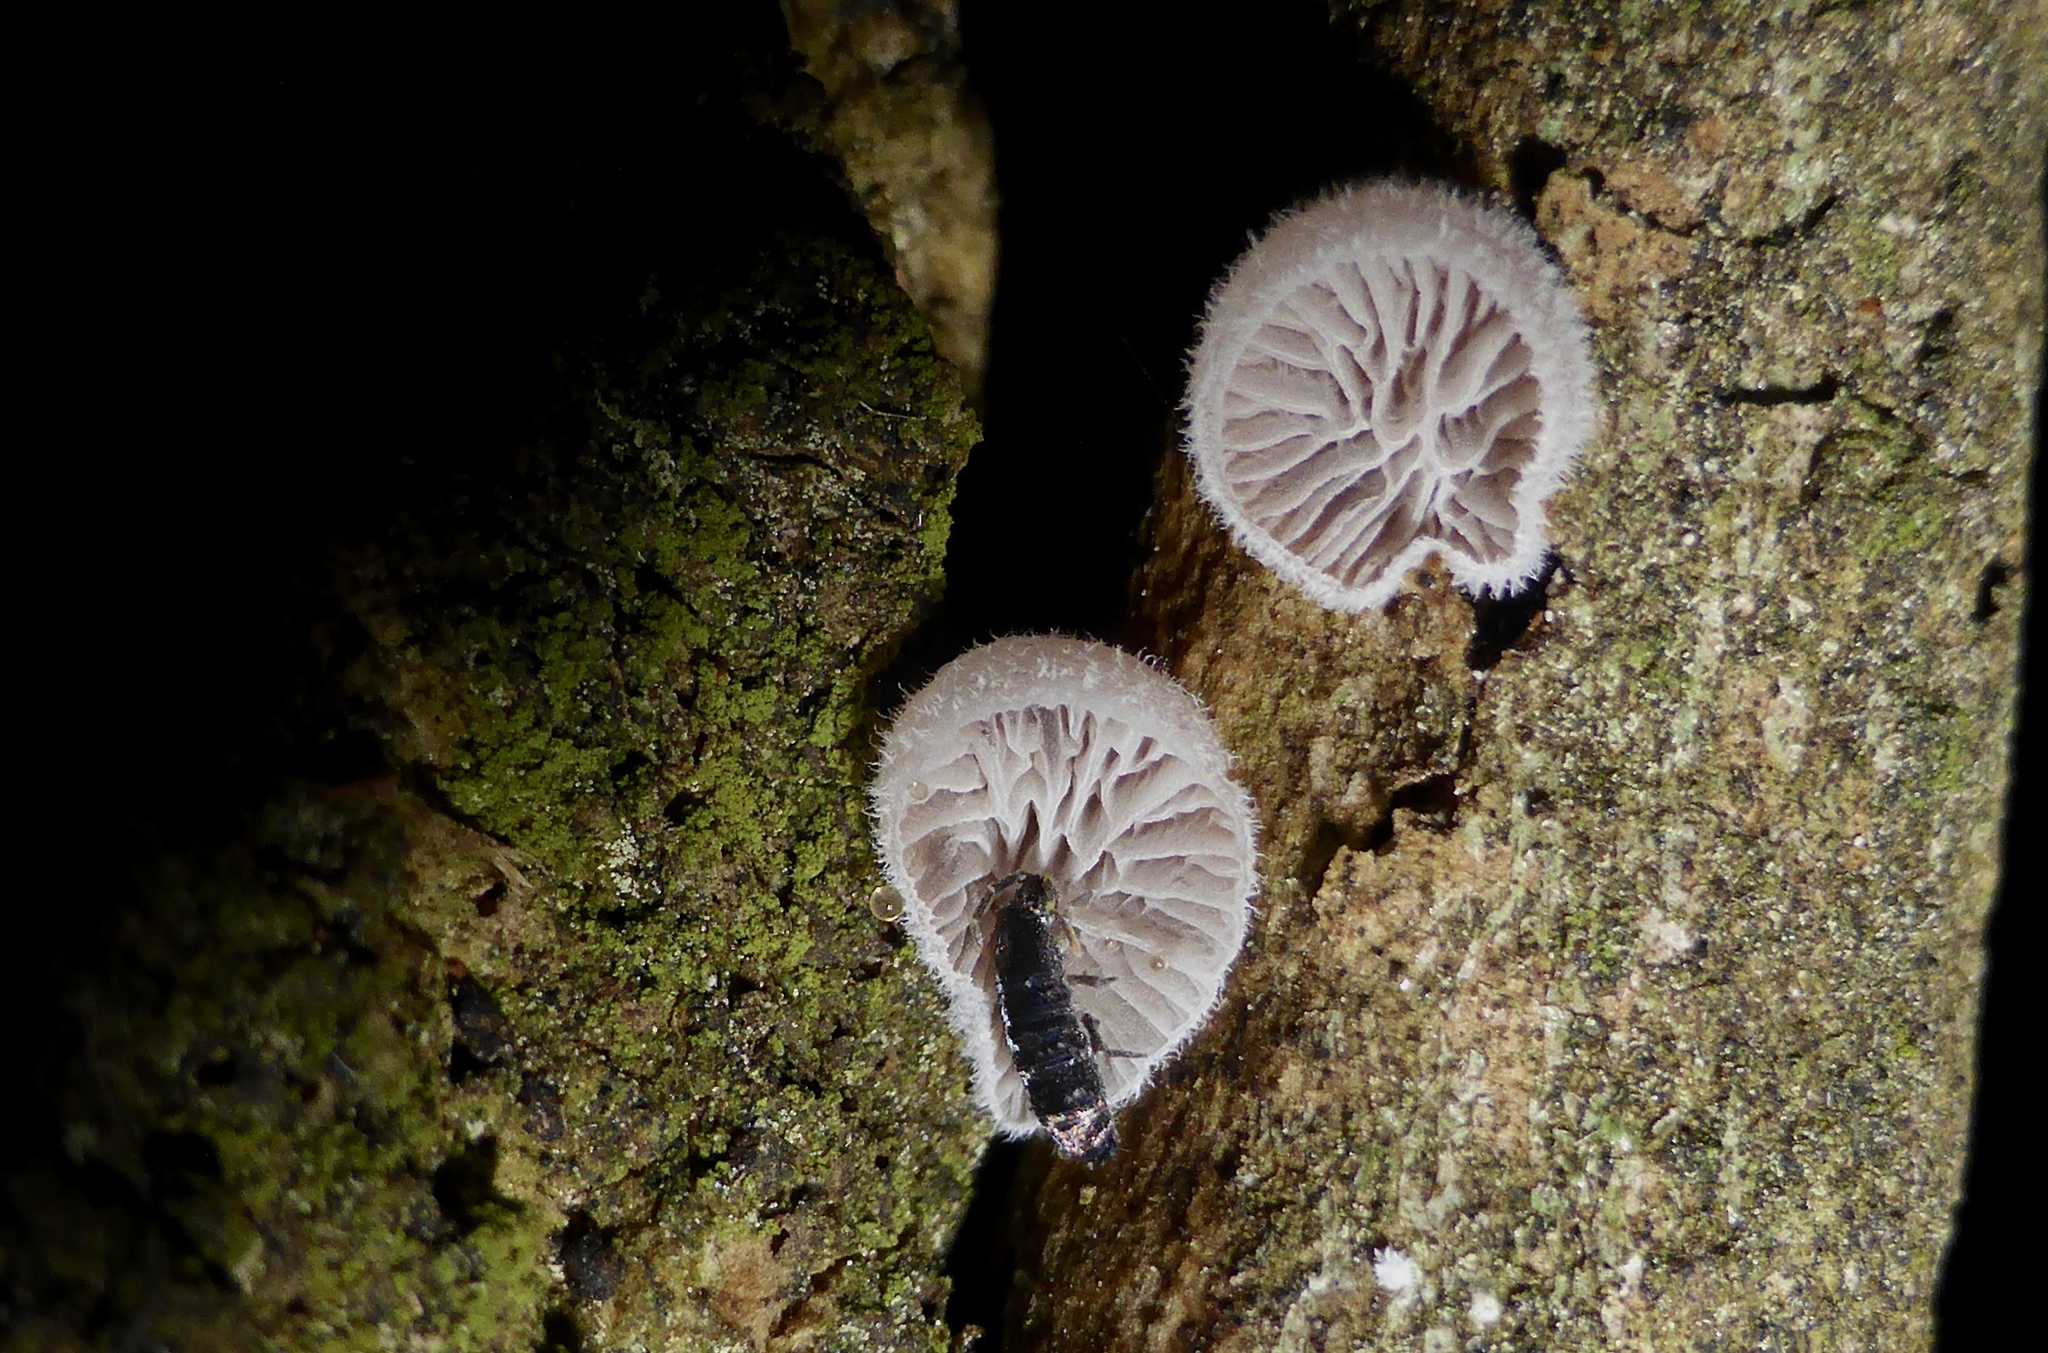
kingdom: Fungi
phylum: Basidiomycota
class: Agaricomycetes
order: Agaricales
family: Pleurotaceae
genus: Resupinatus
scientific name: Resupinatus vinosolividus
